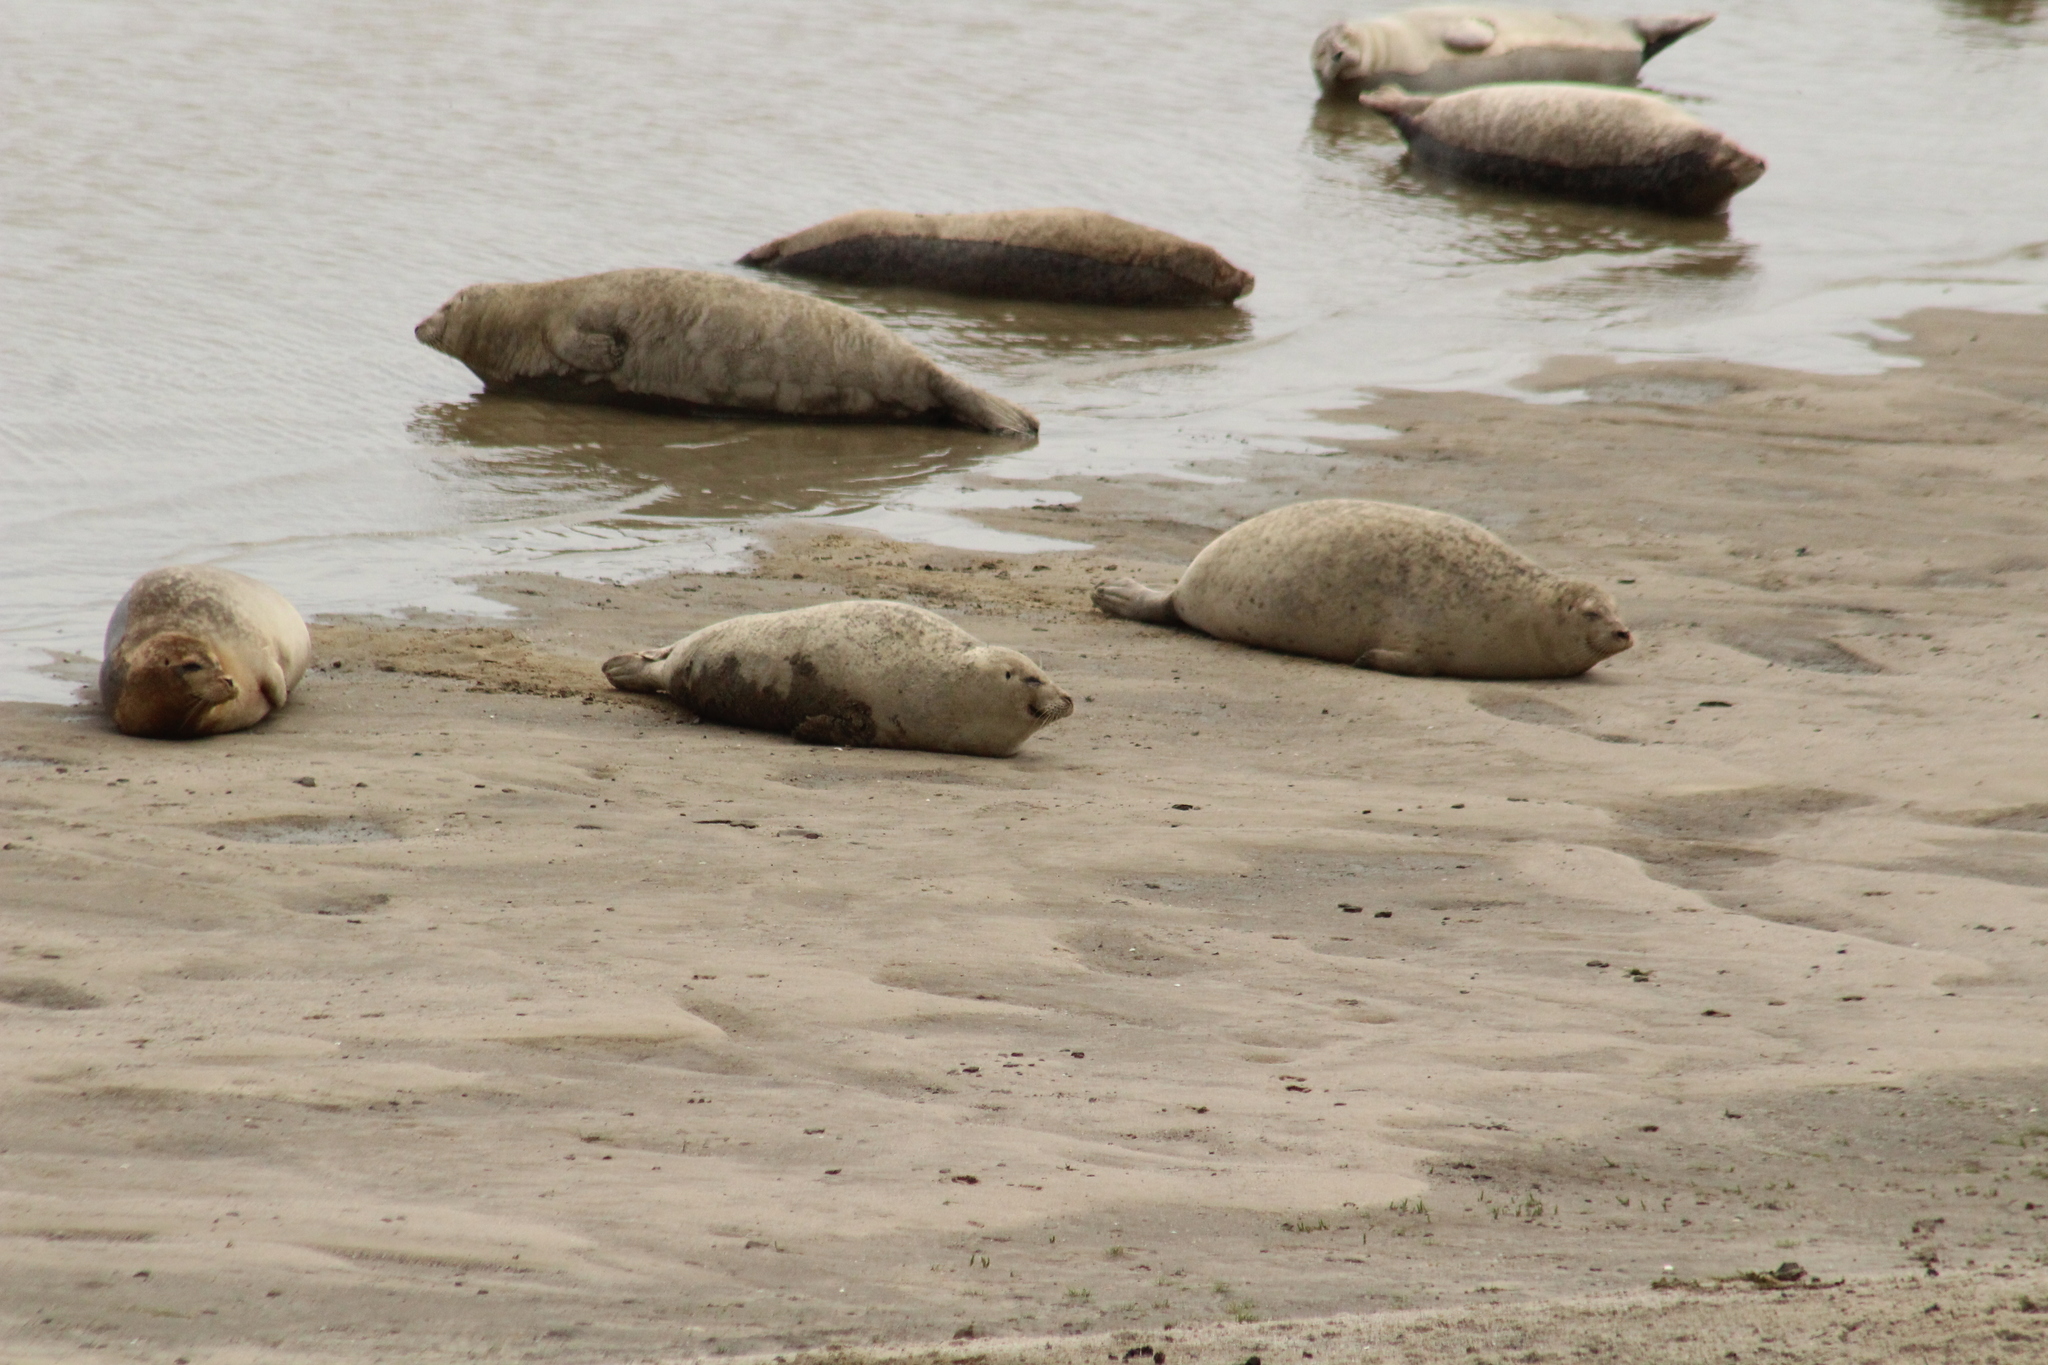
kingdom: Animalia
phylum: Chordata
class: Mammalia
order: Carnivora
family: Phocidae
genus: Phoca
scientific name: Phoca vitulina
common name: Harbor seal
